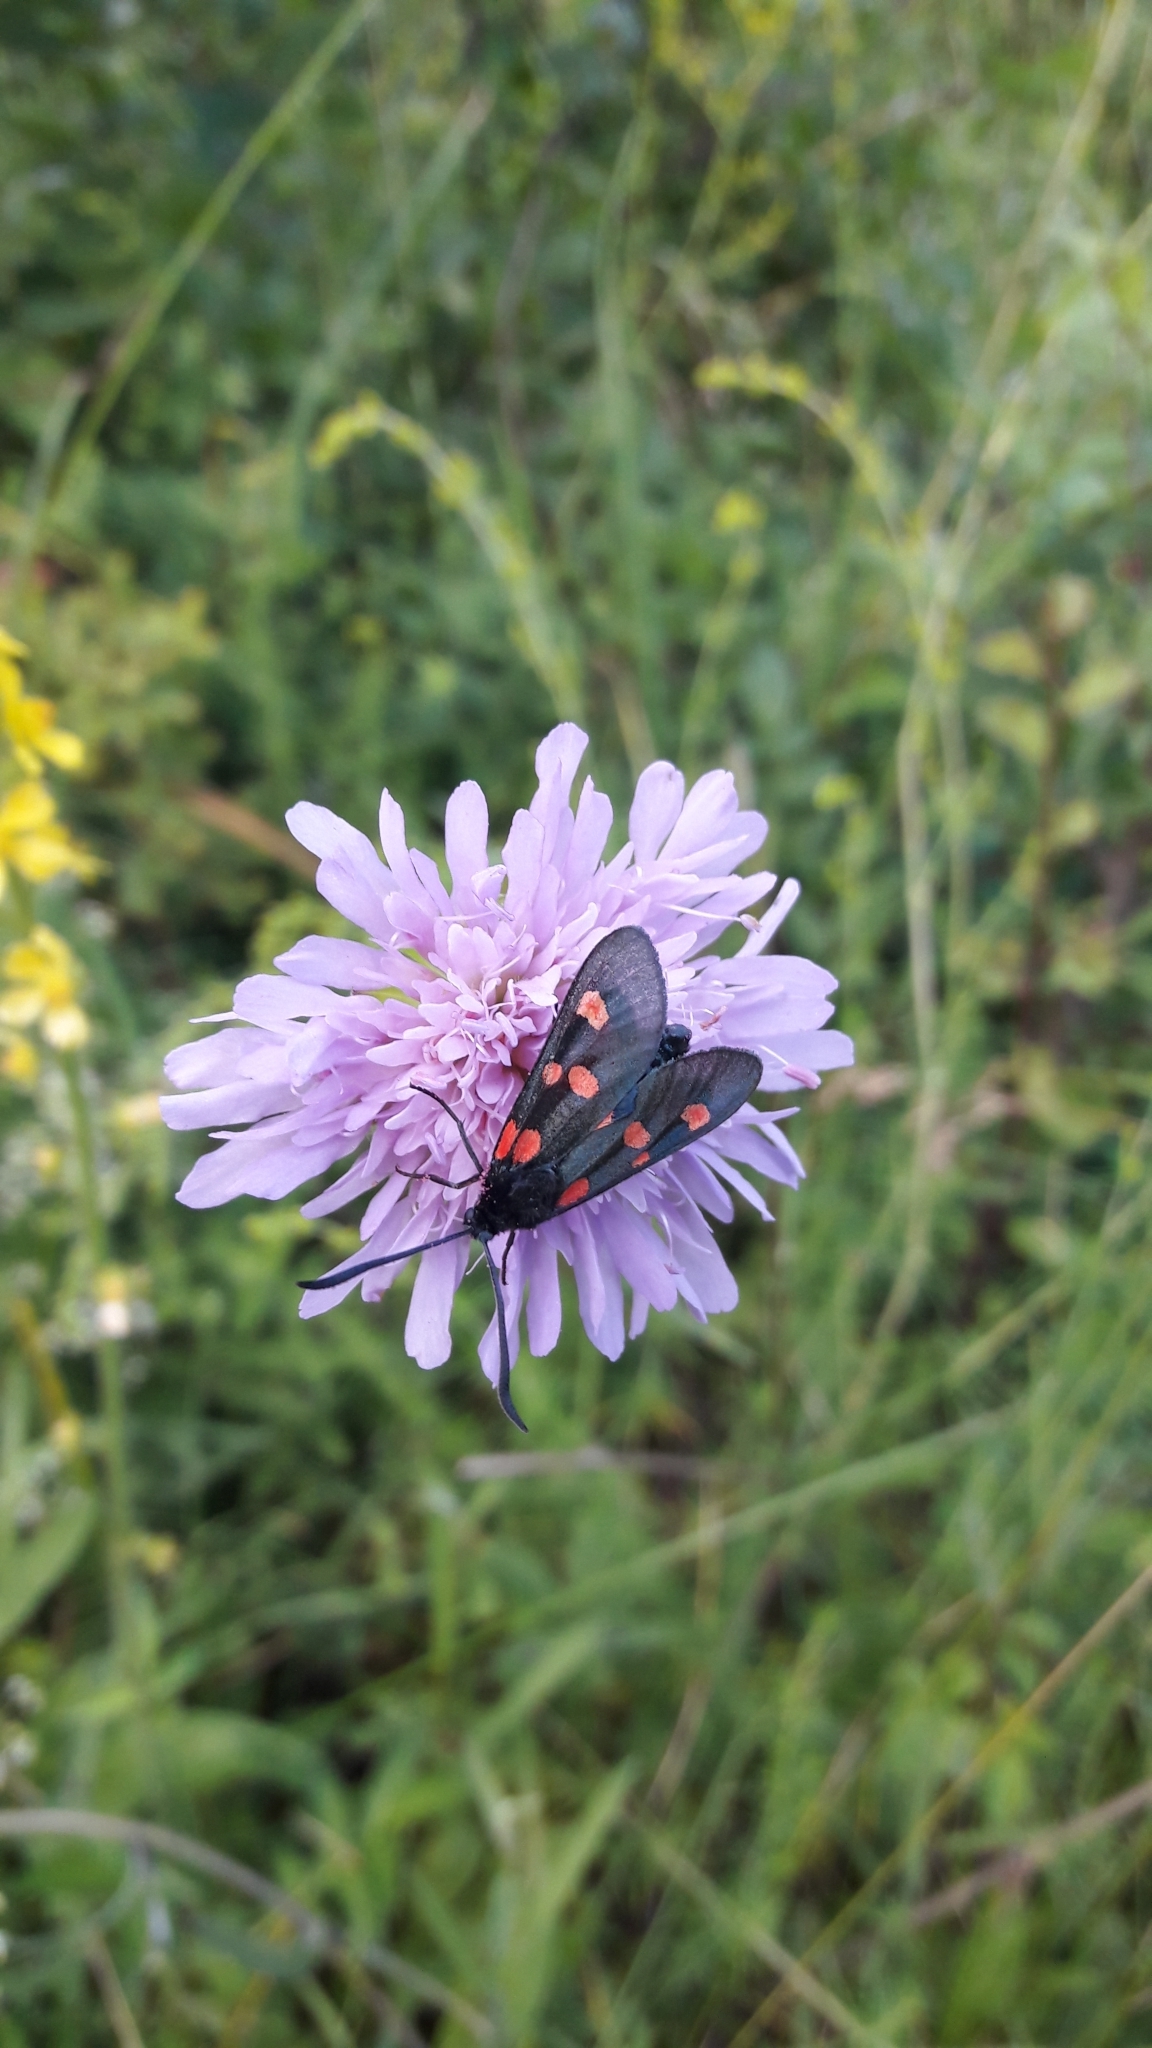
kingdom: Animalia
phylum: Arthropoda
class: Insecta
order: Lepidoptera
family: Zygaenidae
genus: Zygaena
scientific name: Zygaena lonicerae
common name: Narrow-bordered five-spot burnet
